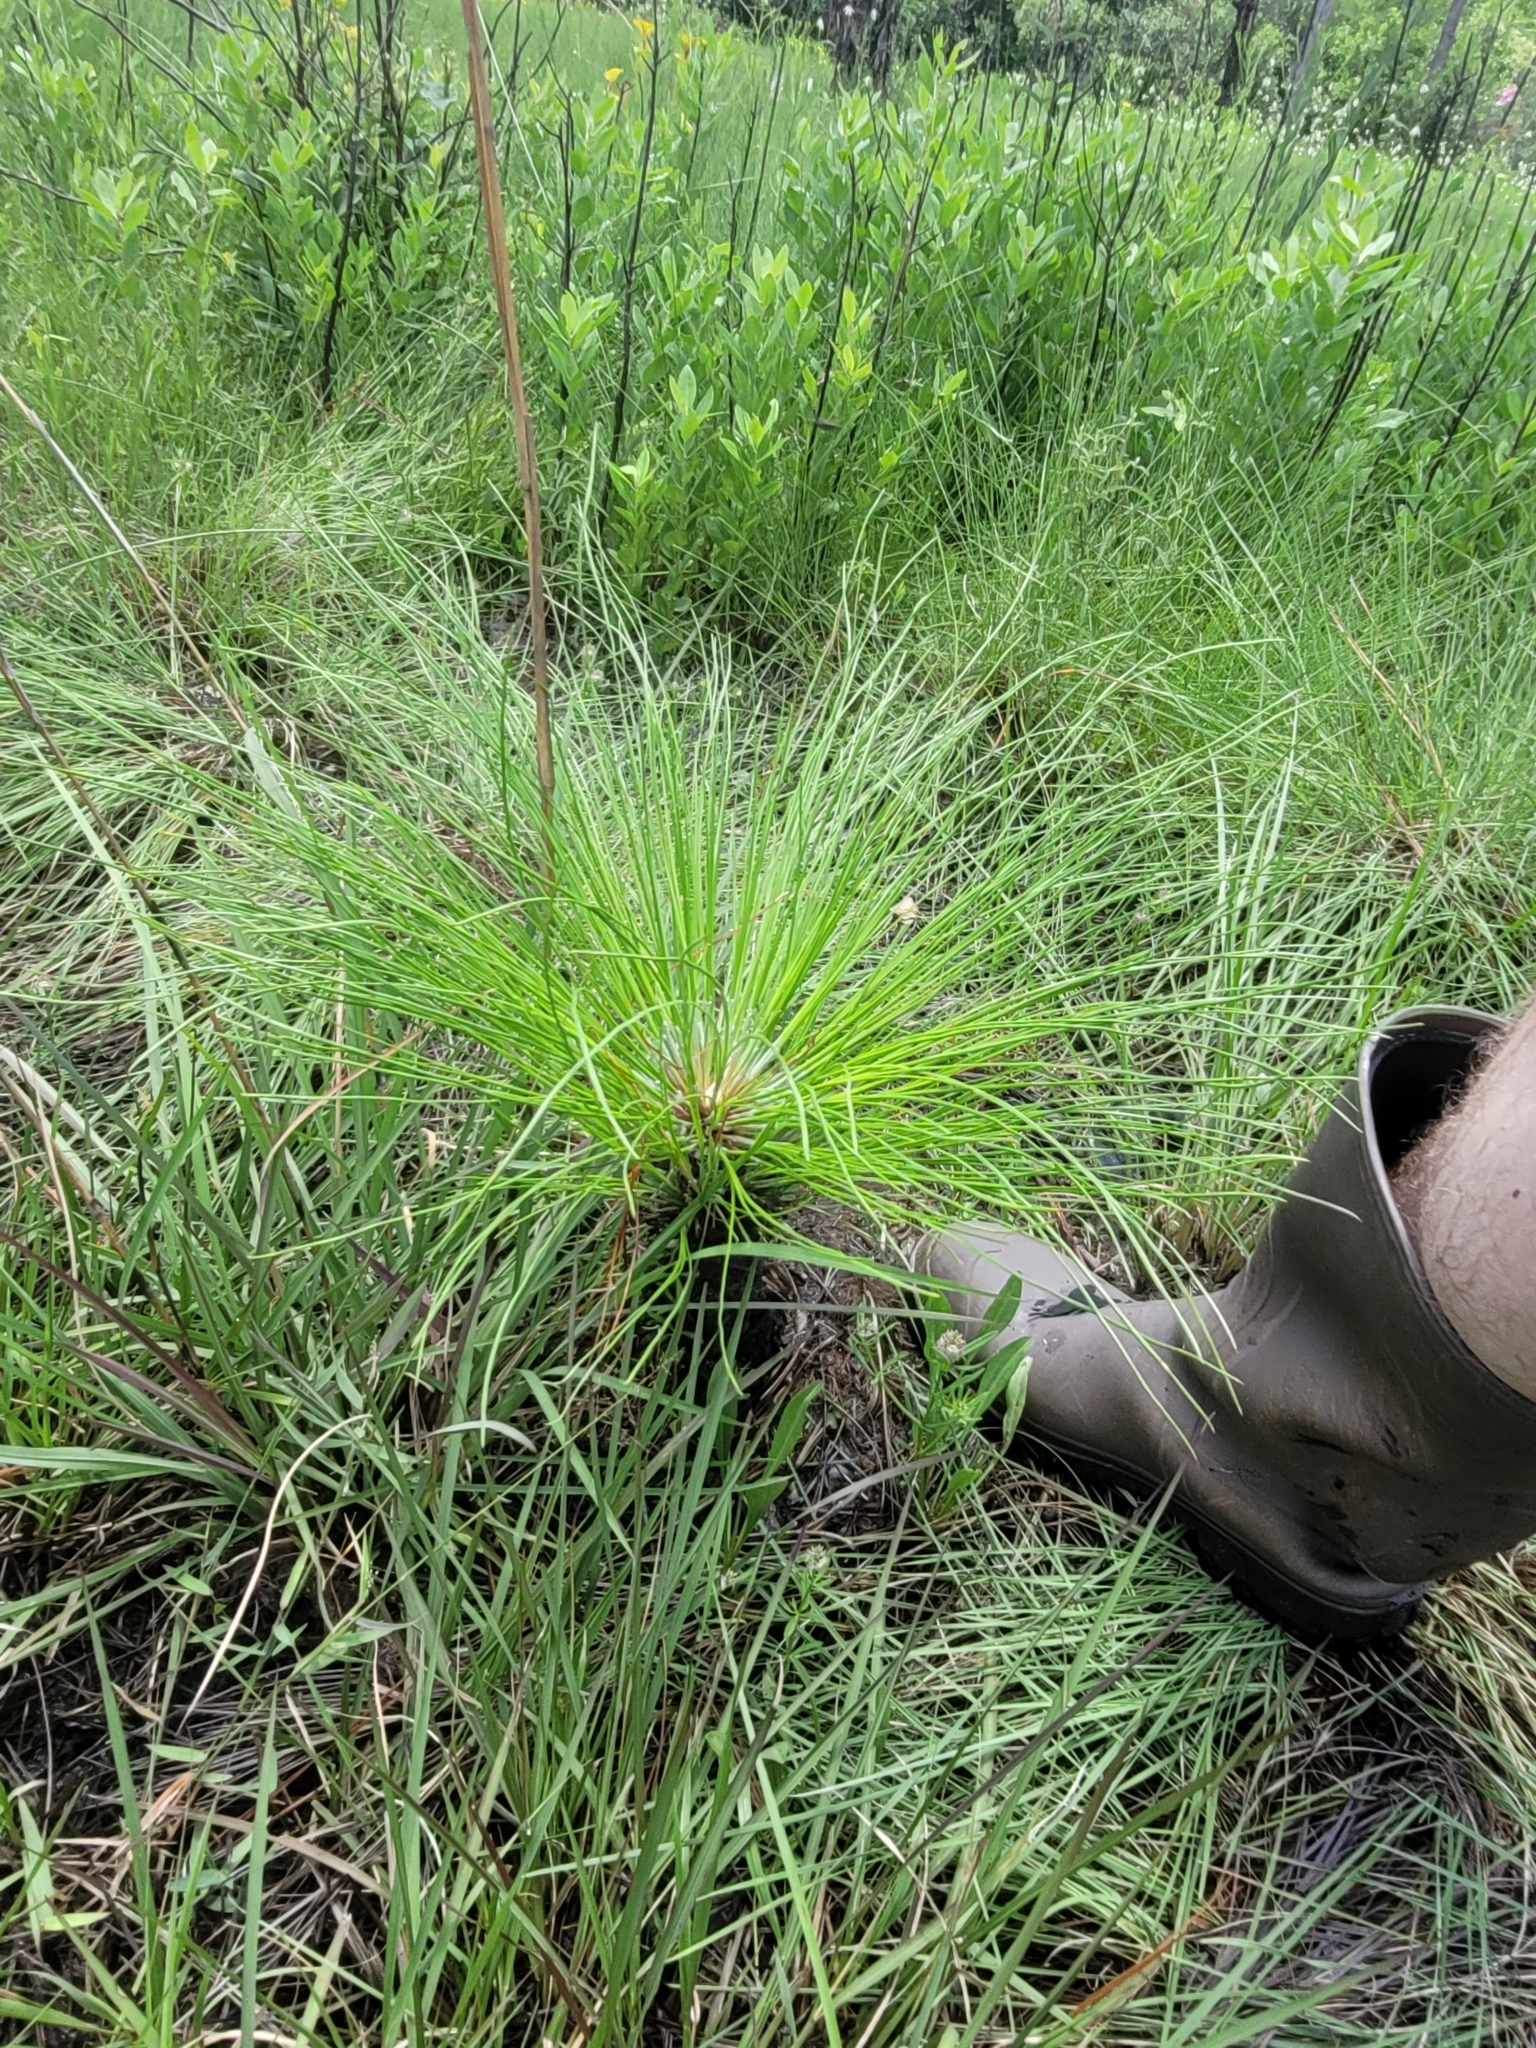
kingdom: Plantae
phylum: Tracheophyta
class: Pinopsida
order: Pinales
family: Pinaceae
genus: Pinus
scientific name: Pinus palustris
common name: Longleaf pine
